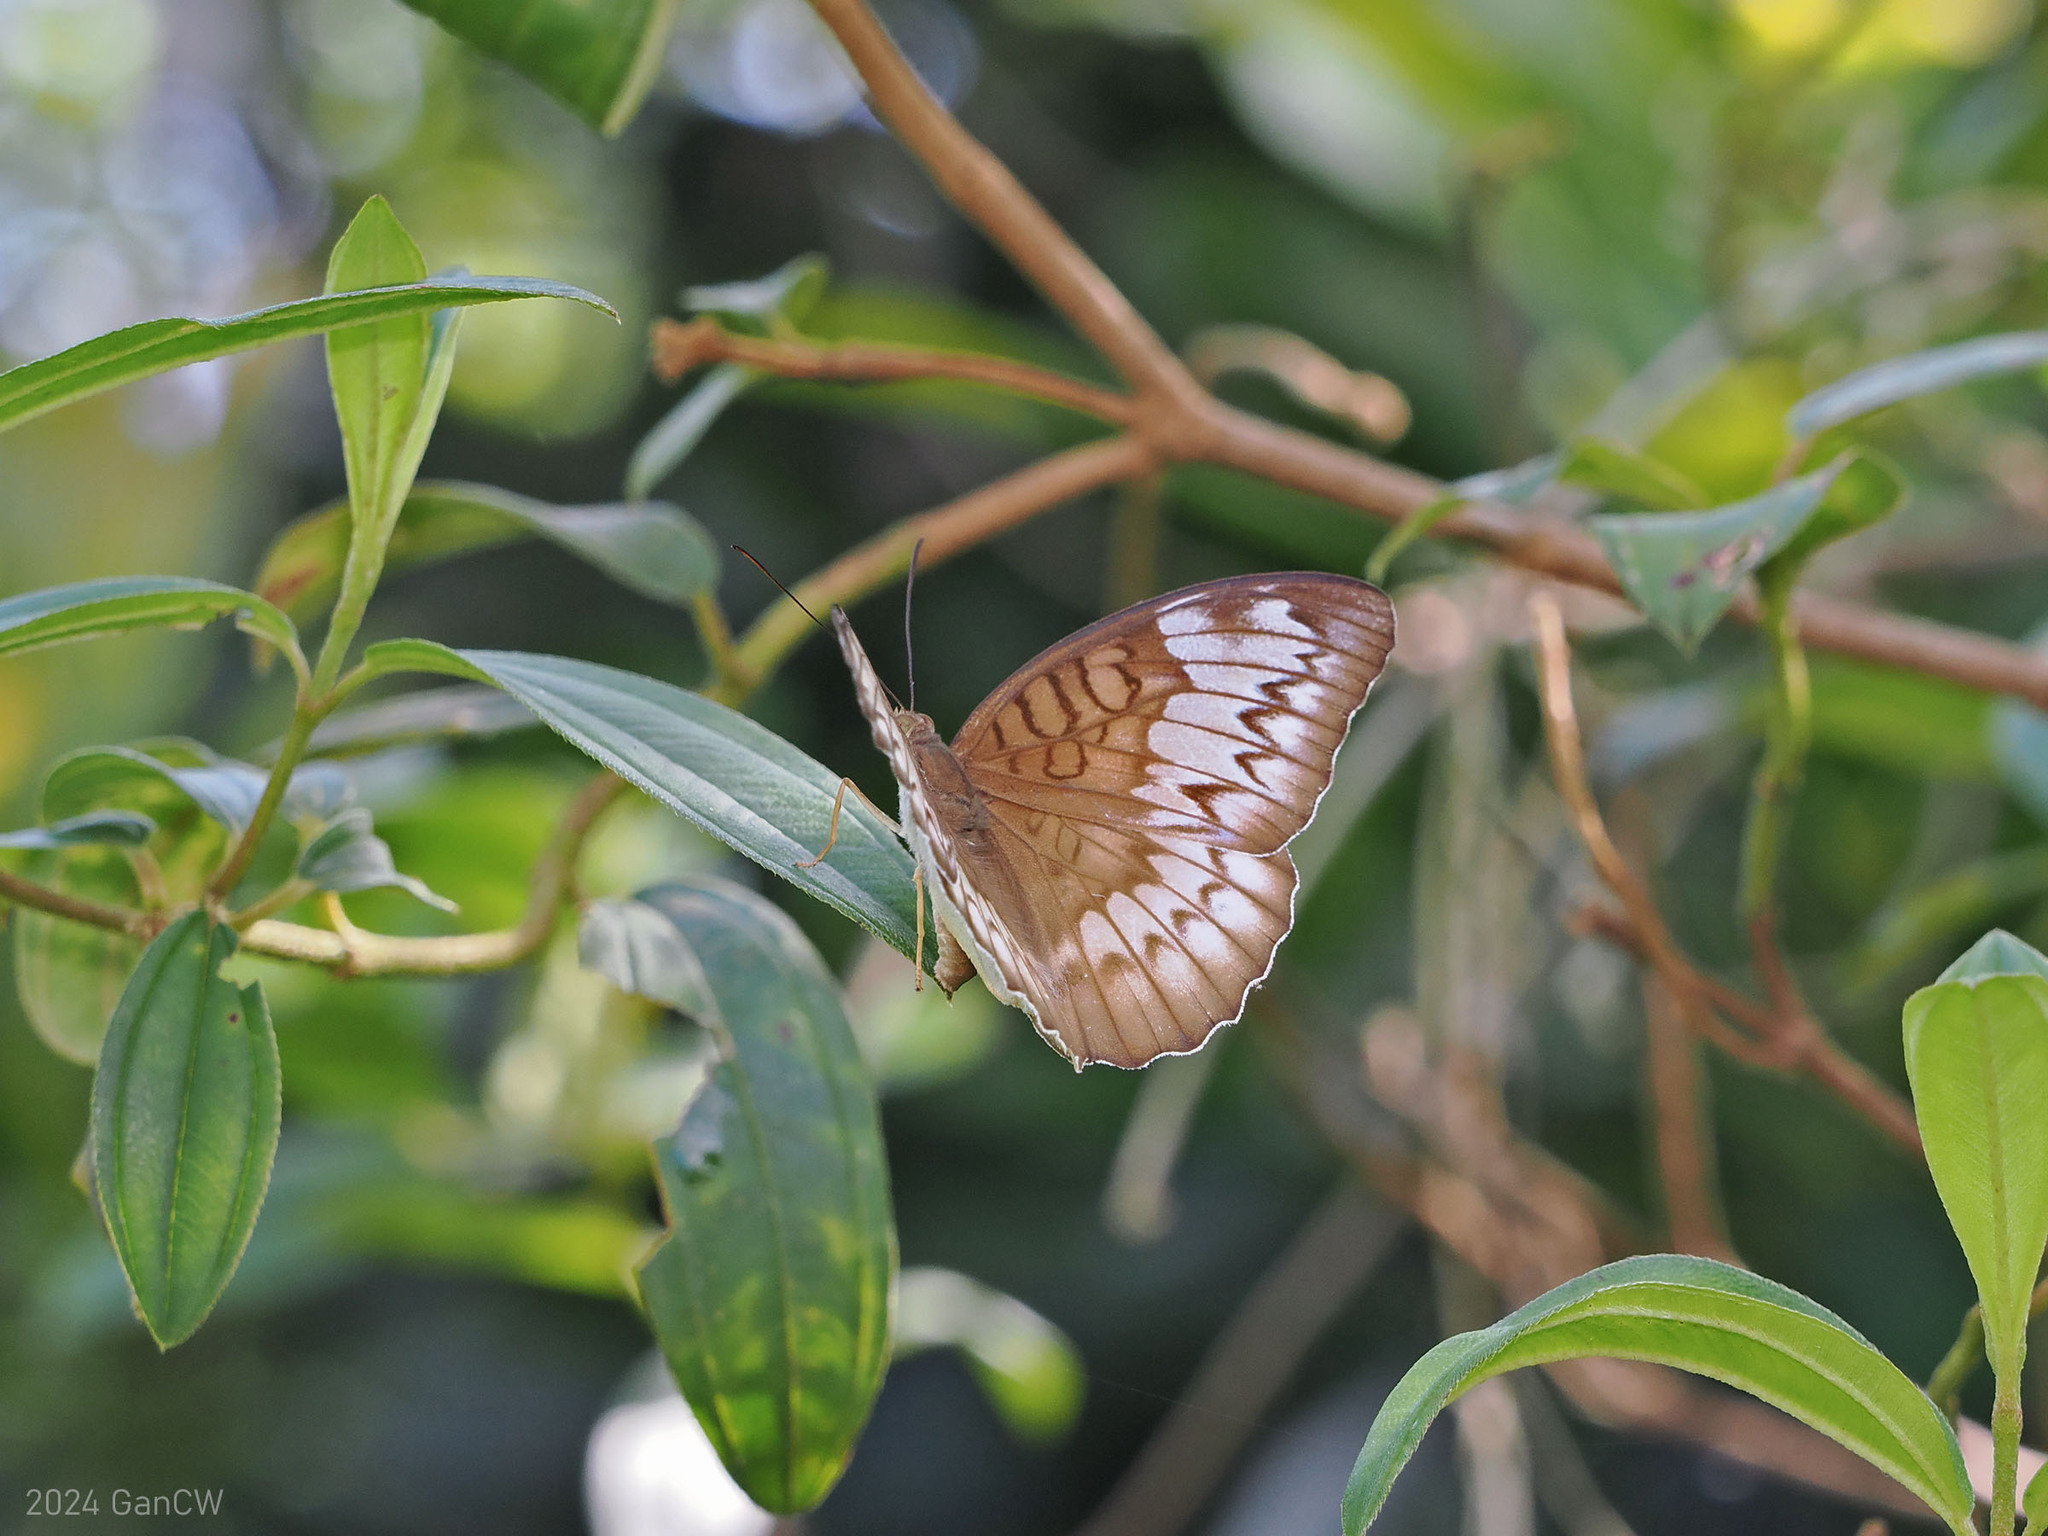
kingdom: Animalia
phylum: Arthropoda
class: Insecta
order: Lepidoptera
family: Nymphalidae
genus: Tanaecia
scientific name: Tanaecia iapis
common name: Horsfield's baron
